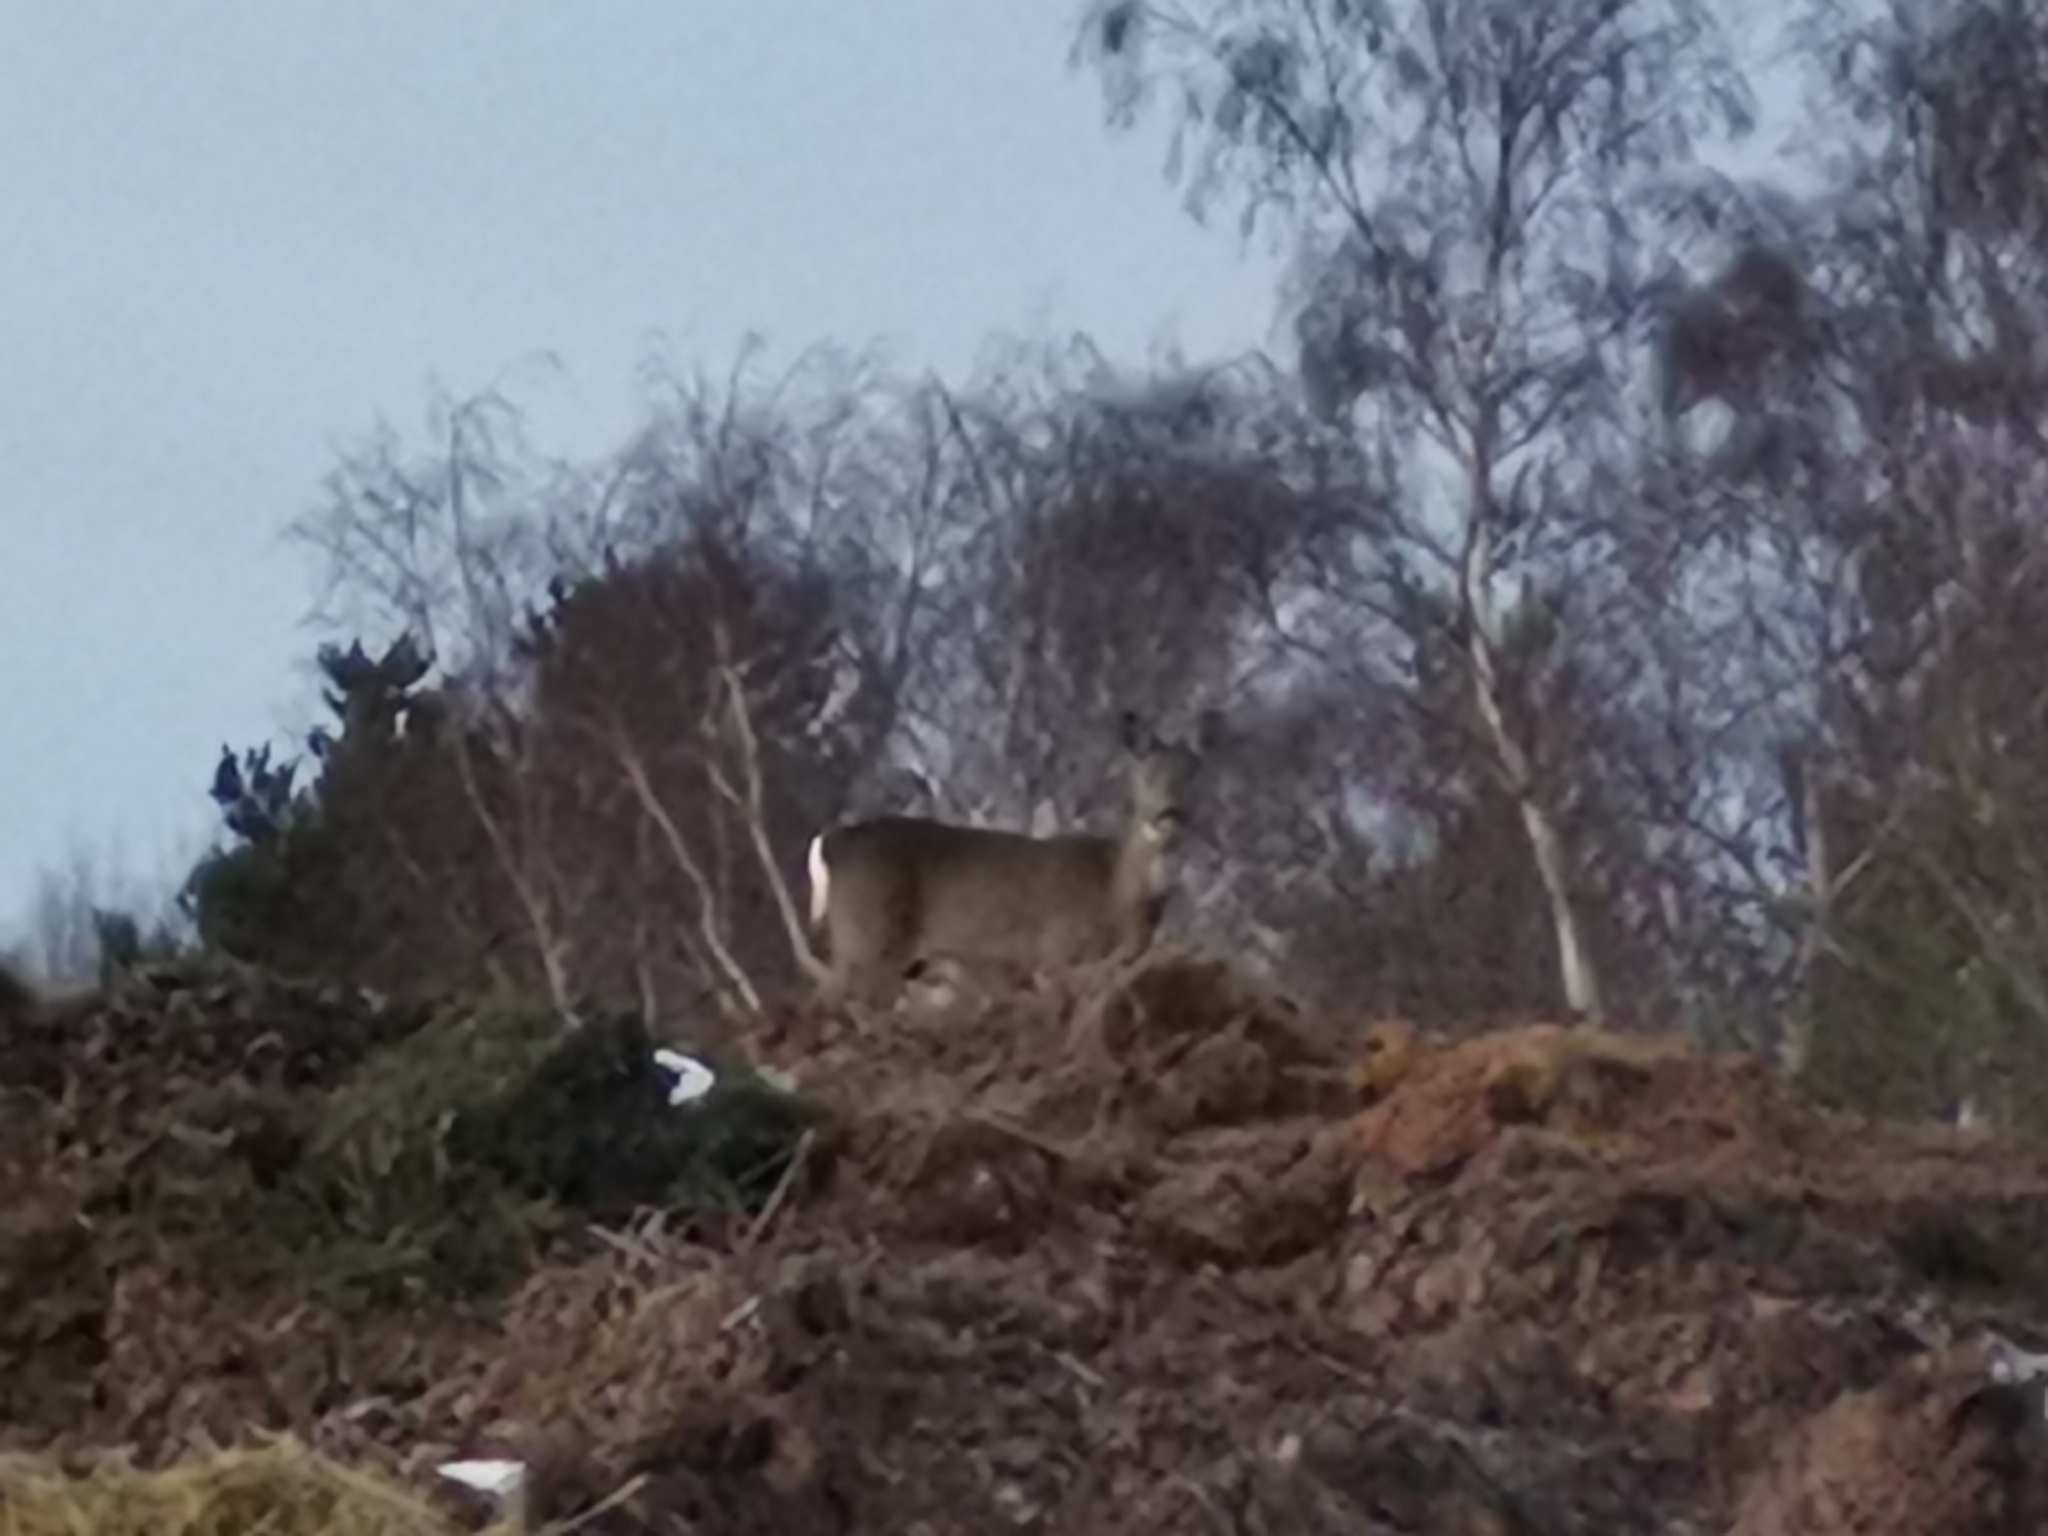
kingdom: Animalia
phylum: Chordata
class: Mammalia
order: Artiodactyla
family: Cervidae
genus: Capreolus
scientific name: Capreolus capreolus
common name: Western roe deer
